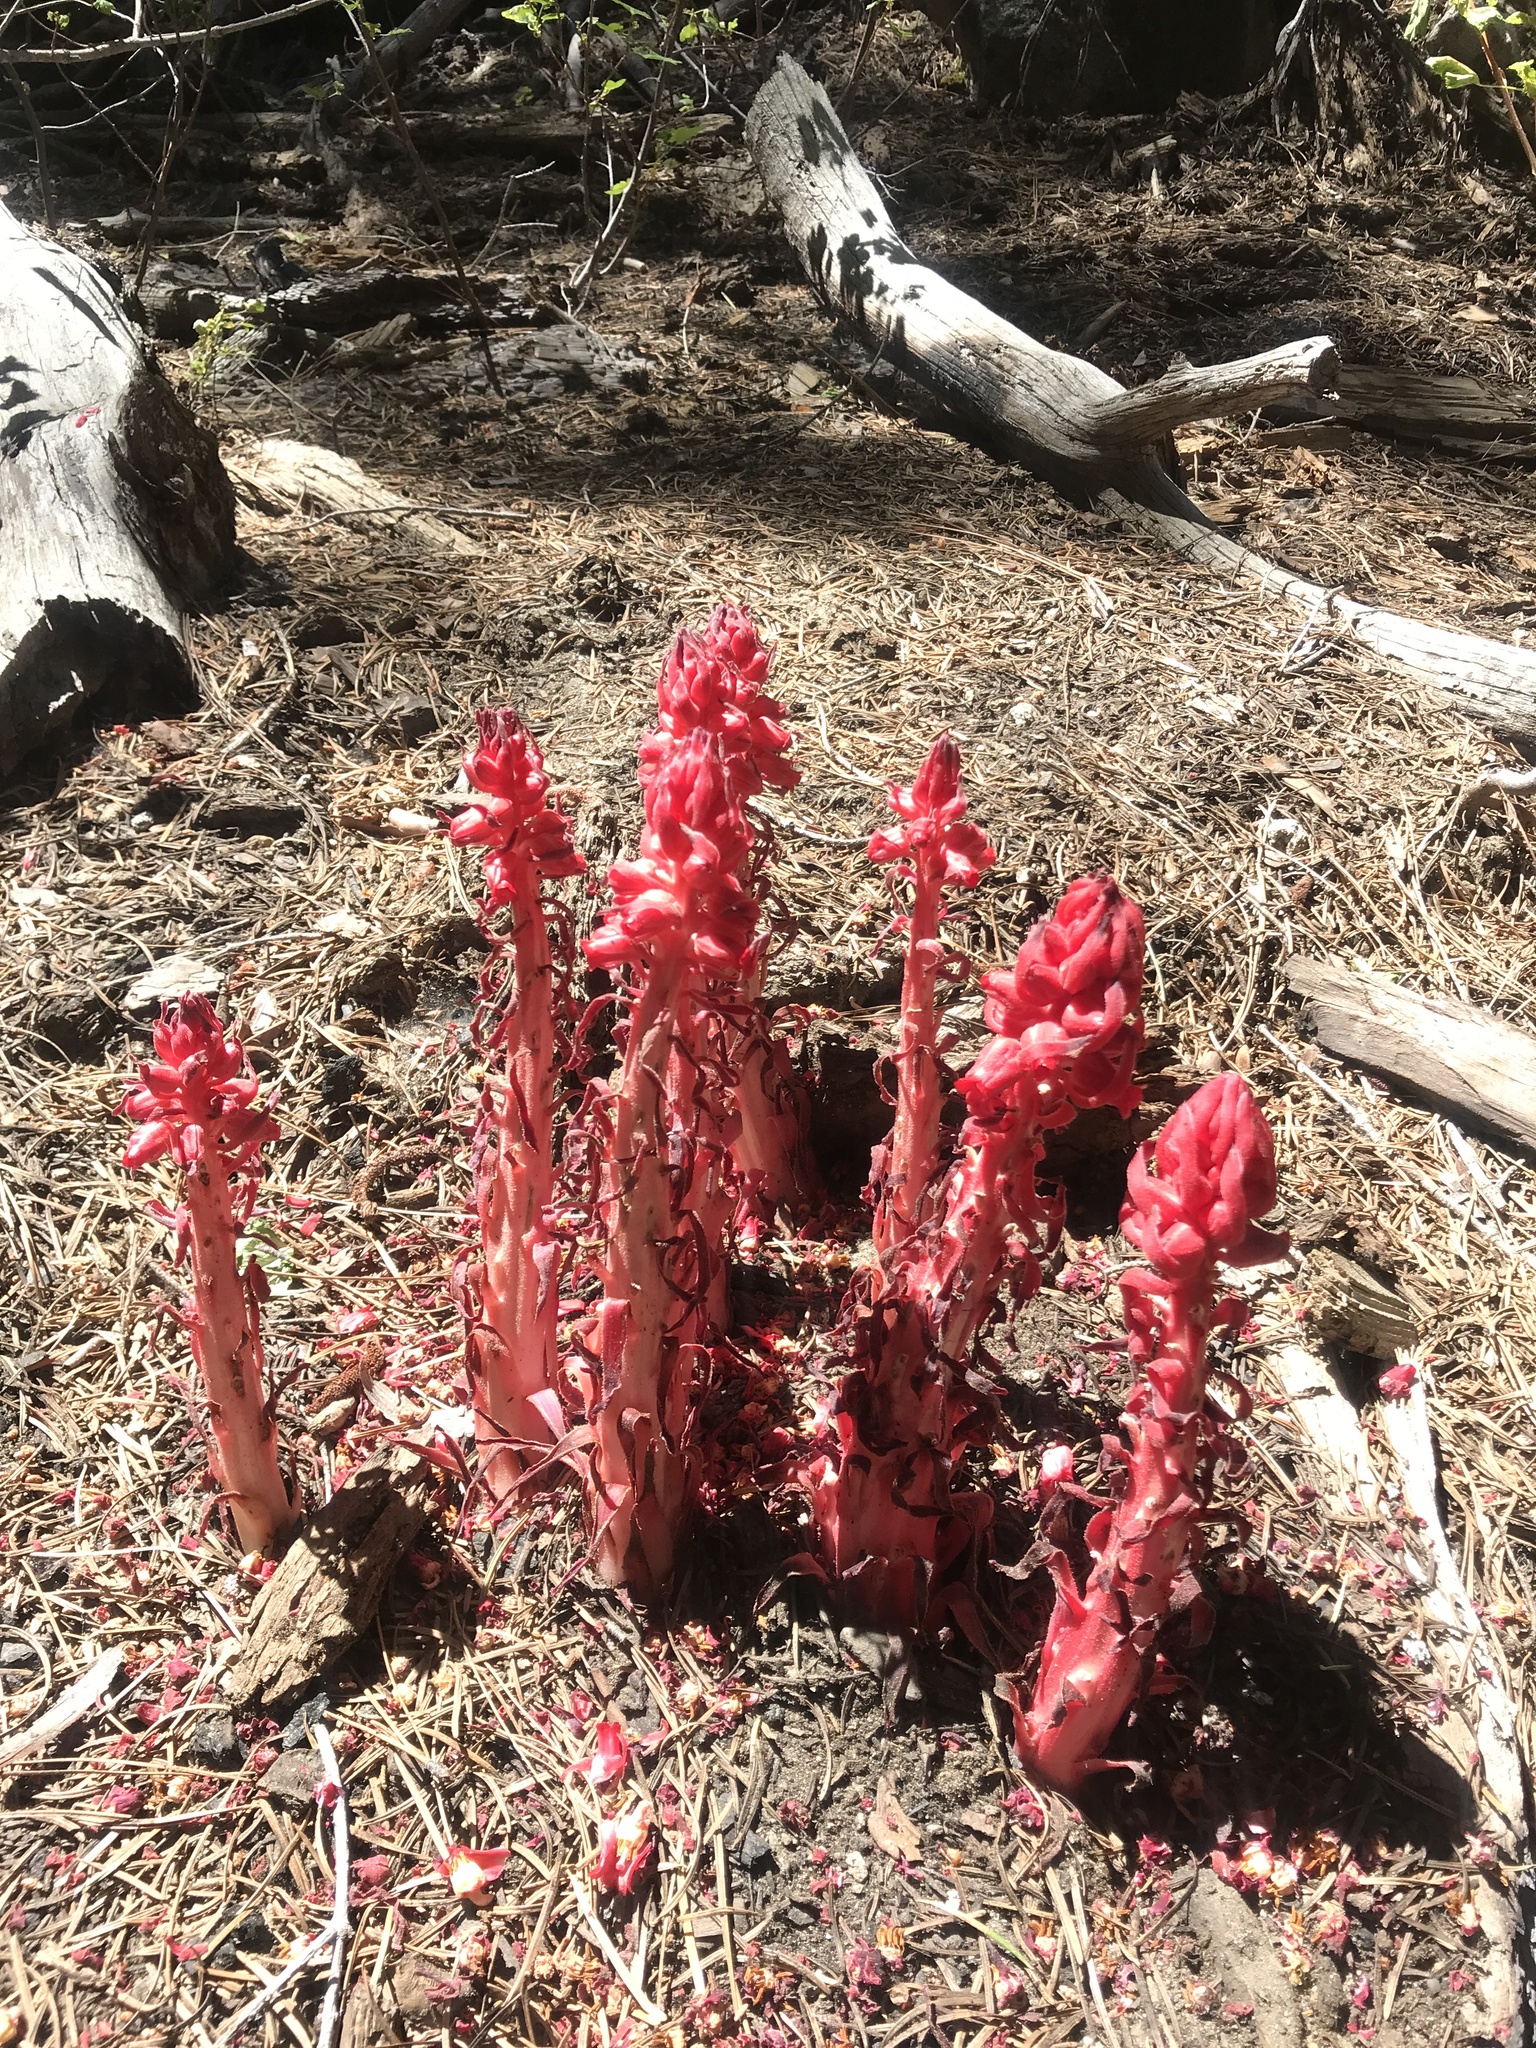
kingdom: Plantae
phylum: Tracheophyta
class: Magnoliopsida
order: Ericales
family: Ericaceae
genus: Sarcodes
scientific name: Sarcodes sanguinea
